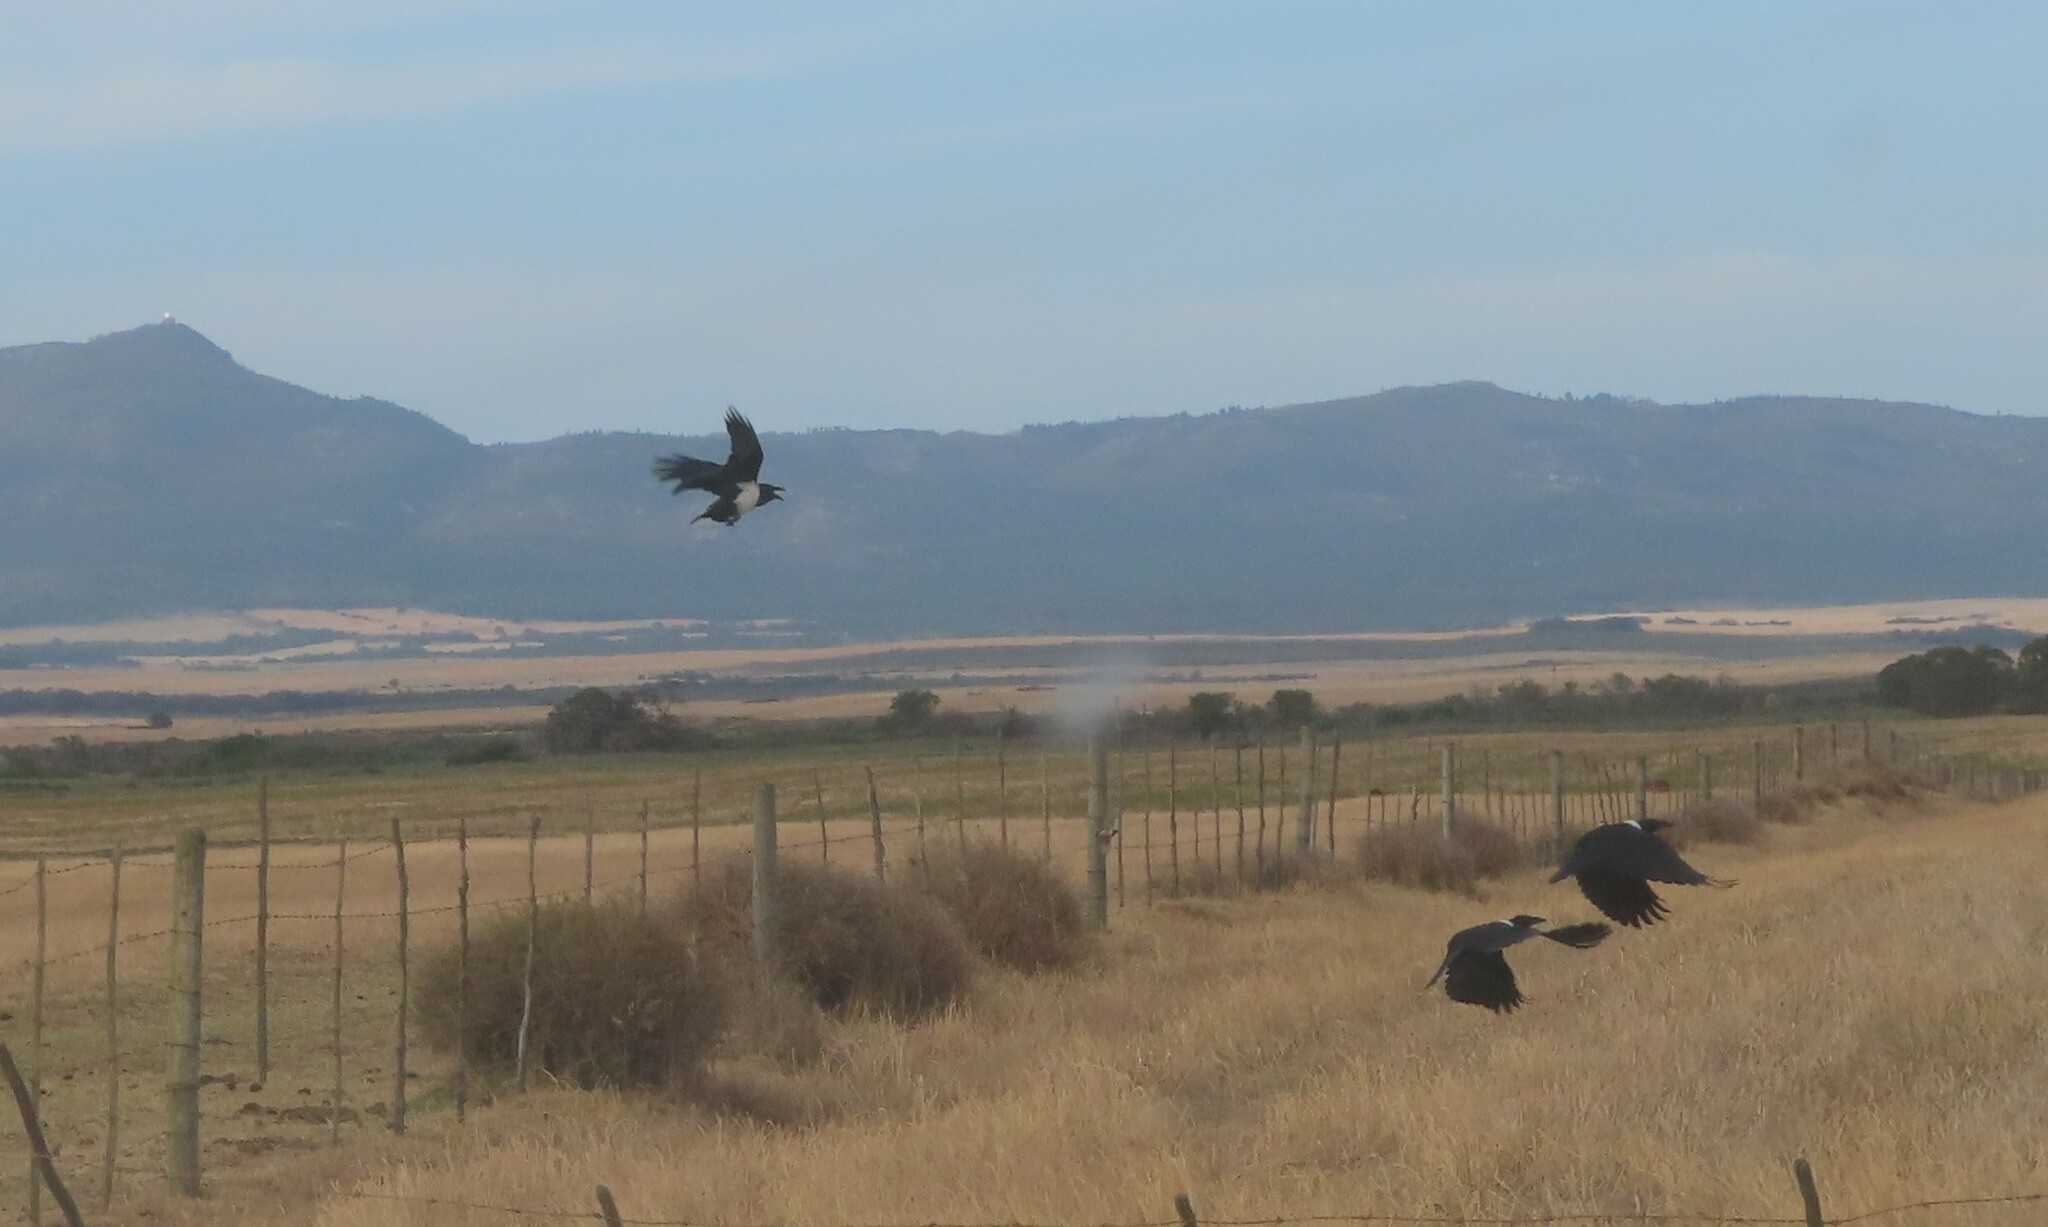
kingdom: Animalia
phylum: Chordata
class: Aves
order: Passeriformes
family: Corvidae
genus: Corvus
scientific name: Corvus albus
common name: Pied crow
